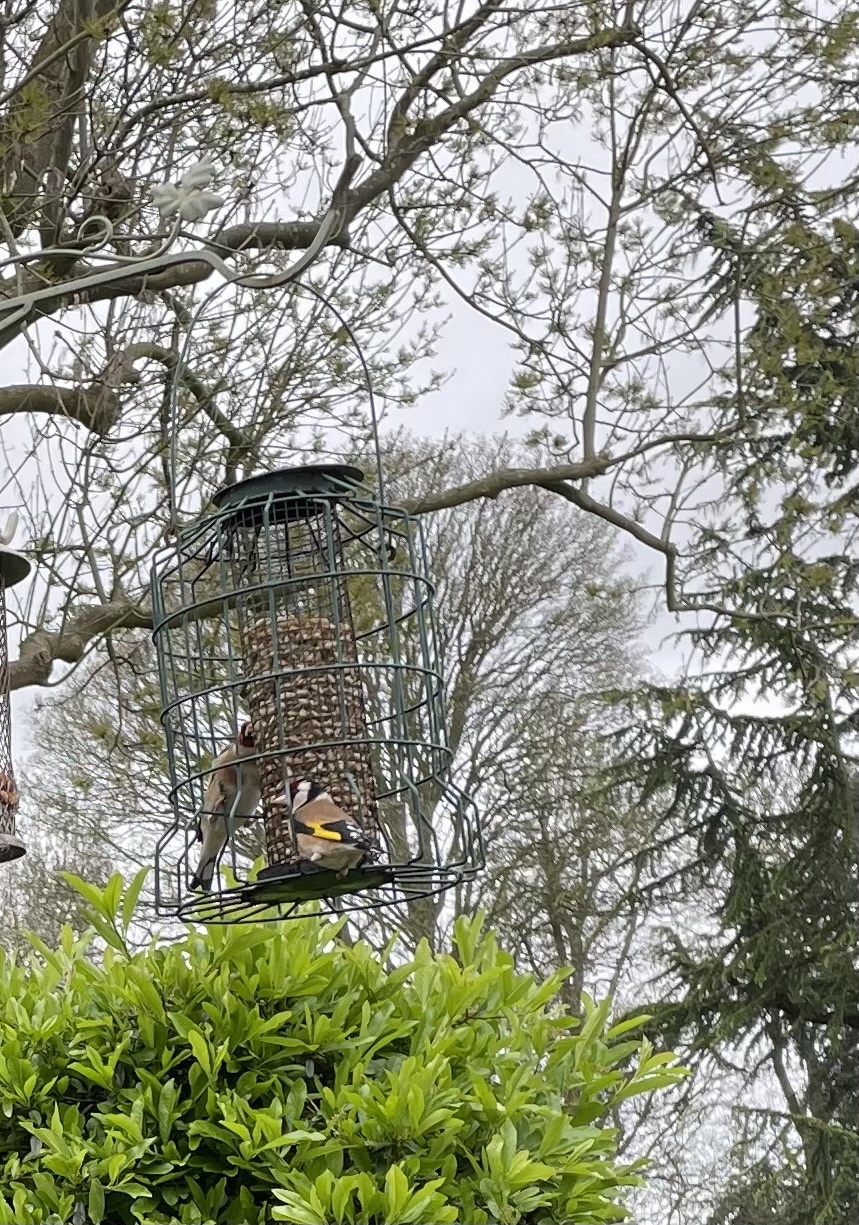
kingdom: Animalia
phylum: Chordata
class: Aves
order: Passeriformes
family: Fringillidae
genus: Carduelis
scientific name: Carduelis carduelis
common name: European goldfinch
